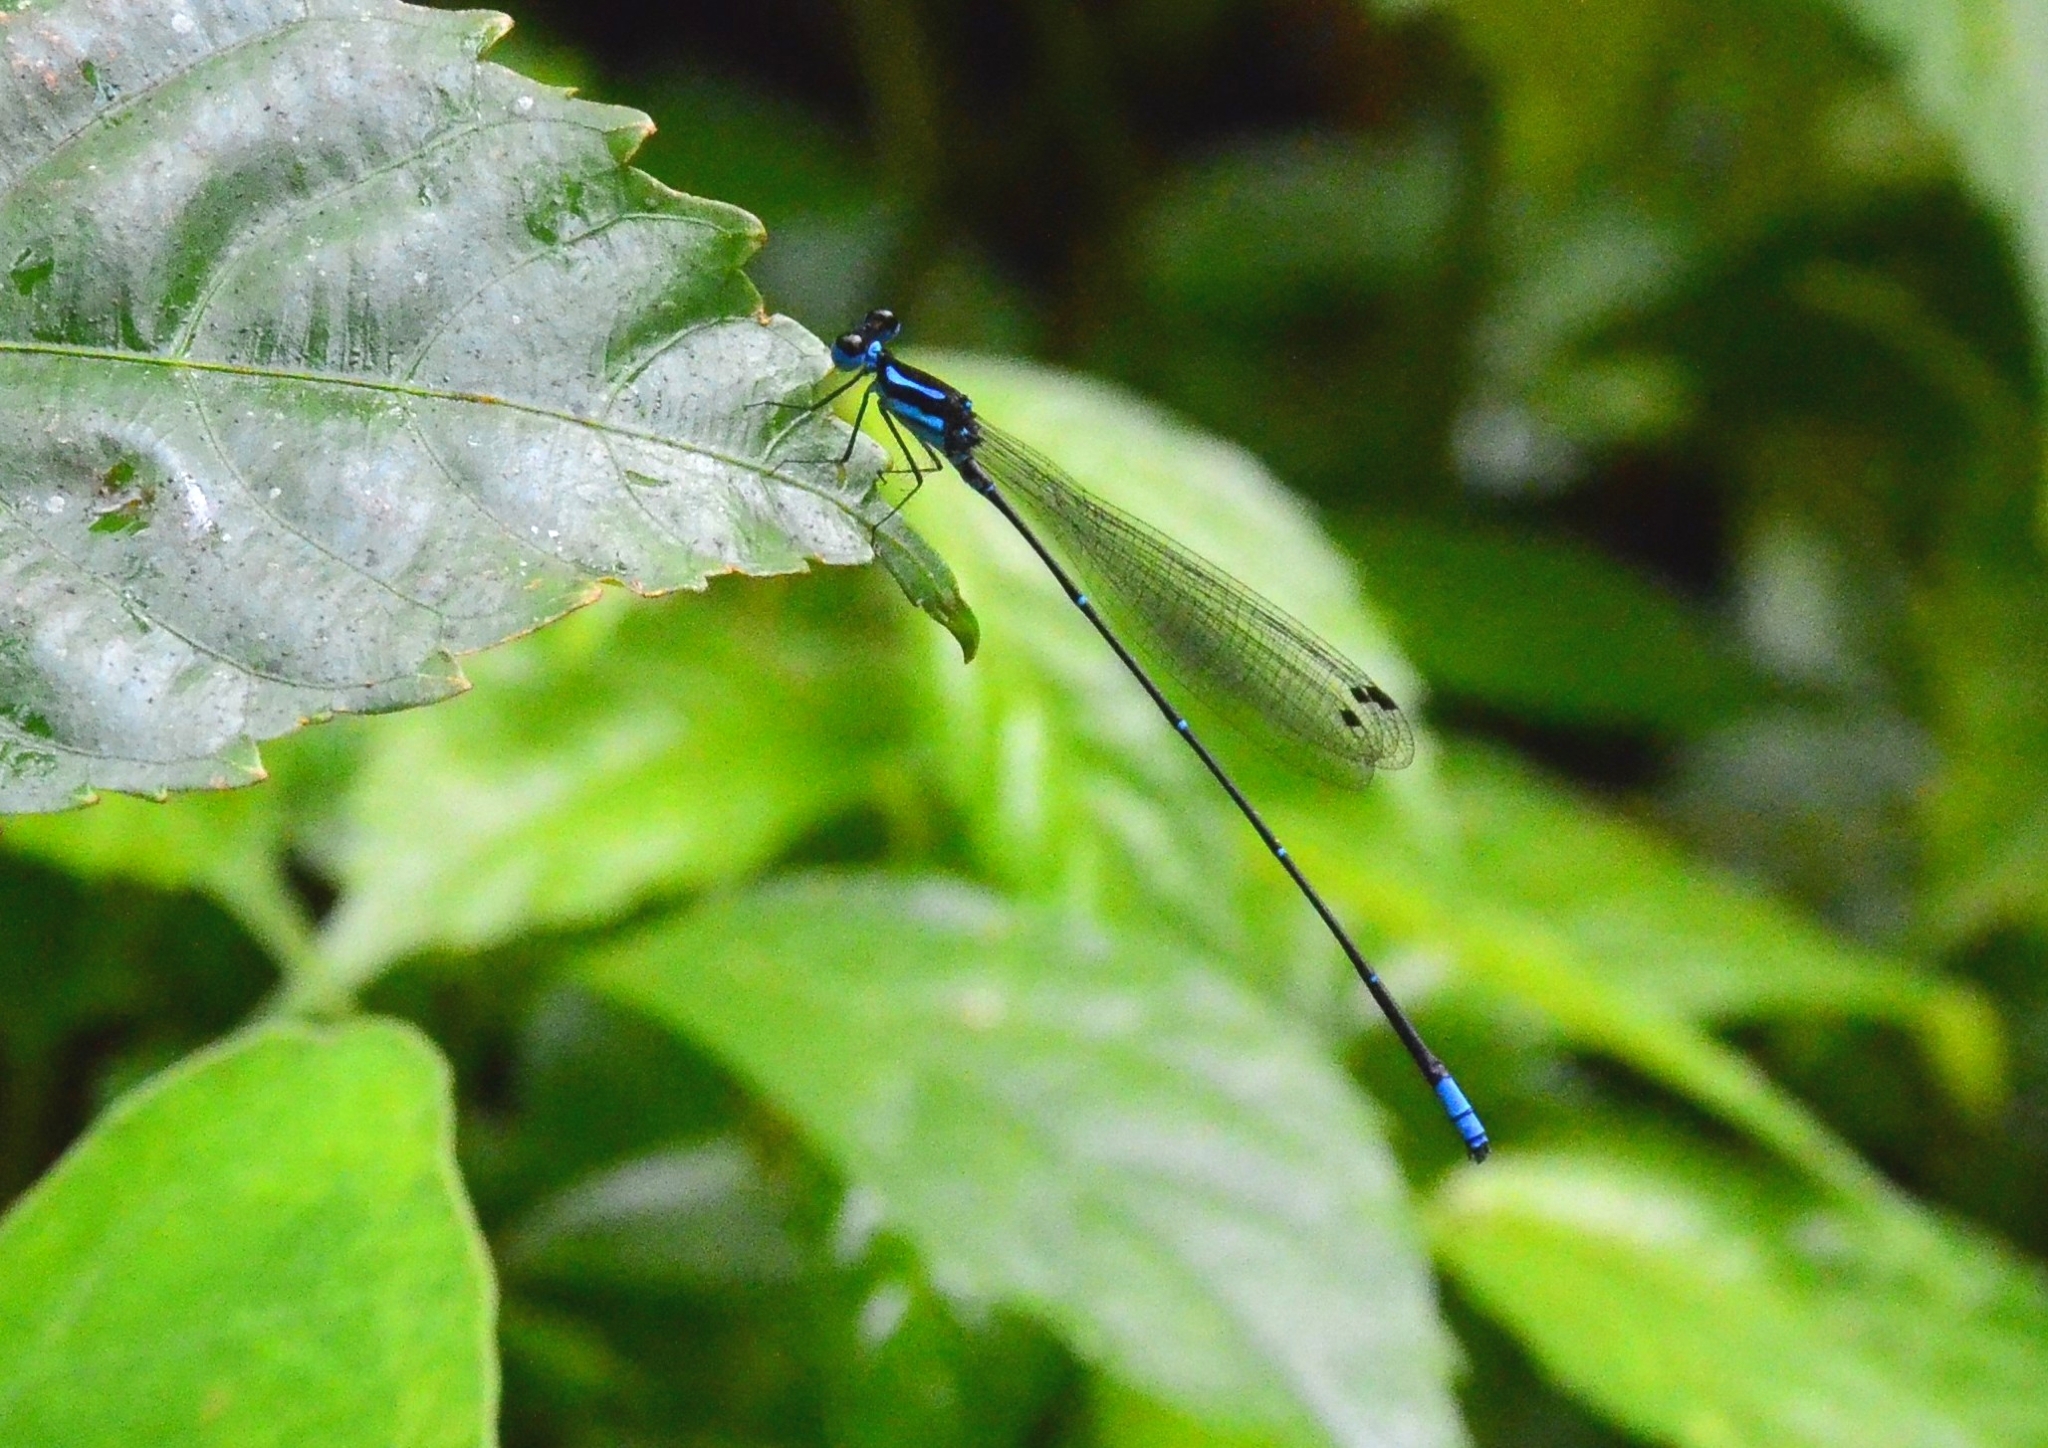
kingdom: Animalia
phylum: Arthropoda
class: Insecta
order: Odonata
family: Platycnemididae
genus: Caconeura
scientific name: Caconeura risi
